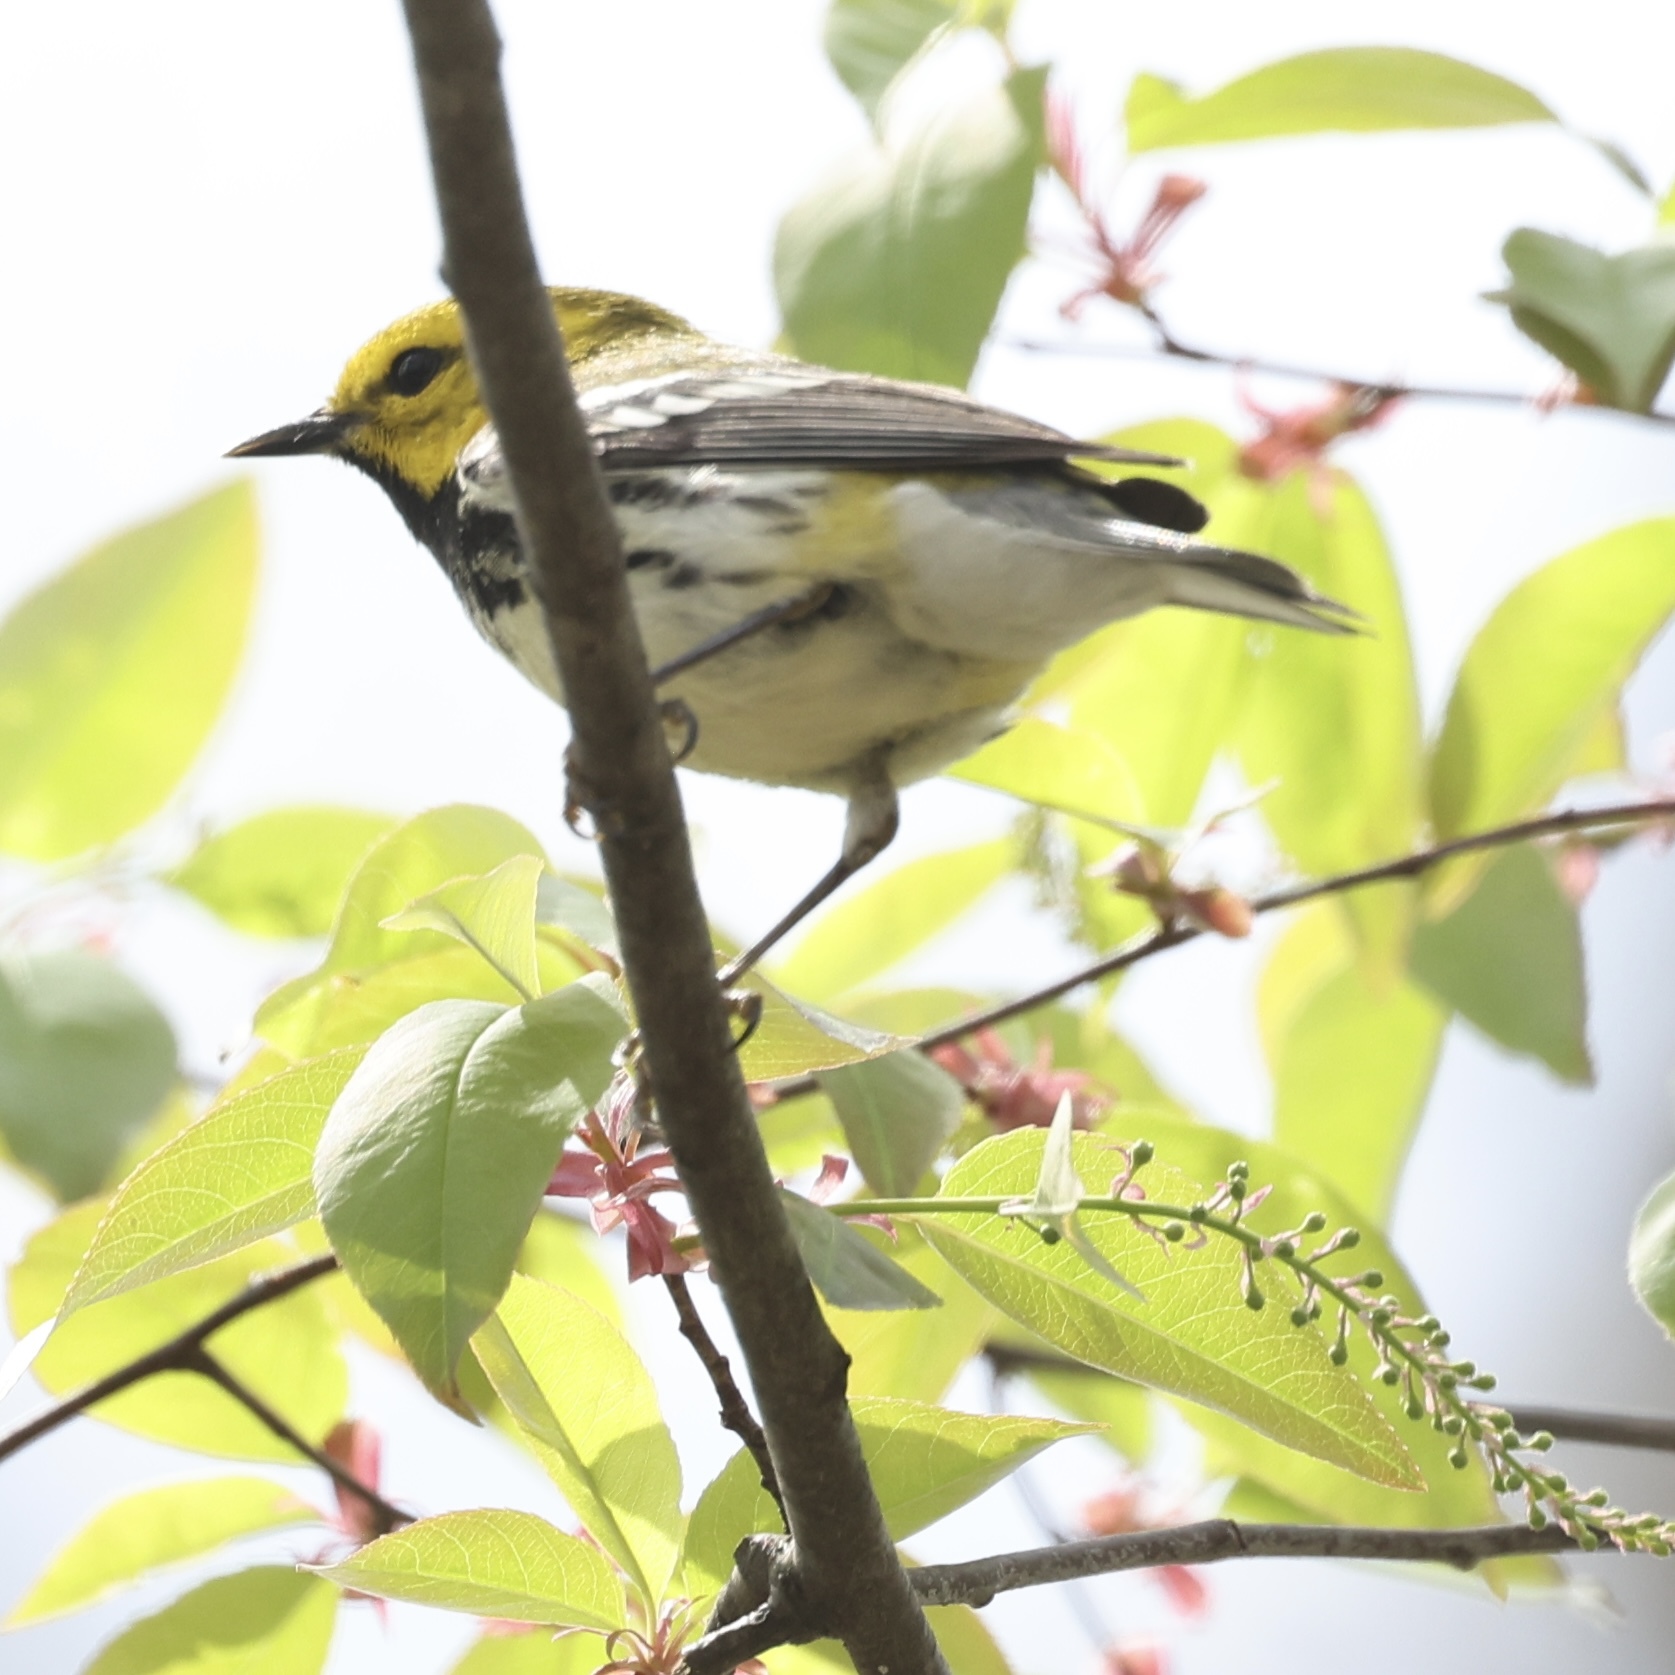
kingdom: Animalia
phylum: Chordata
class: Aves
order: Passeriformes
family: Parulidae
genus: Setophaga
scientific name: Setophaga virens
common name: Black-throated green warbler
